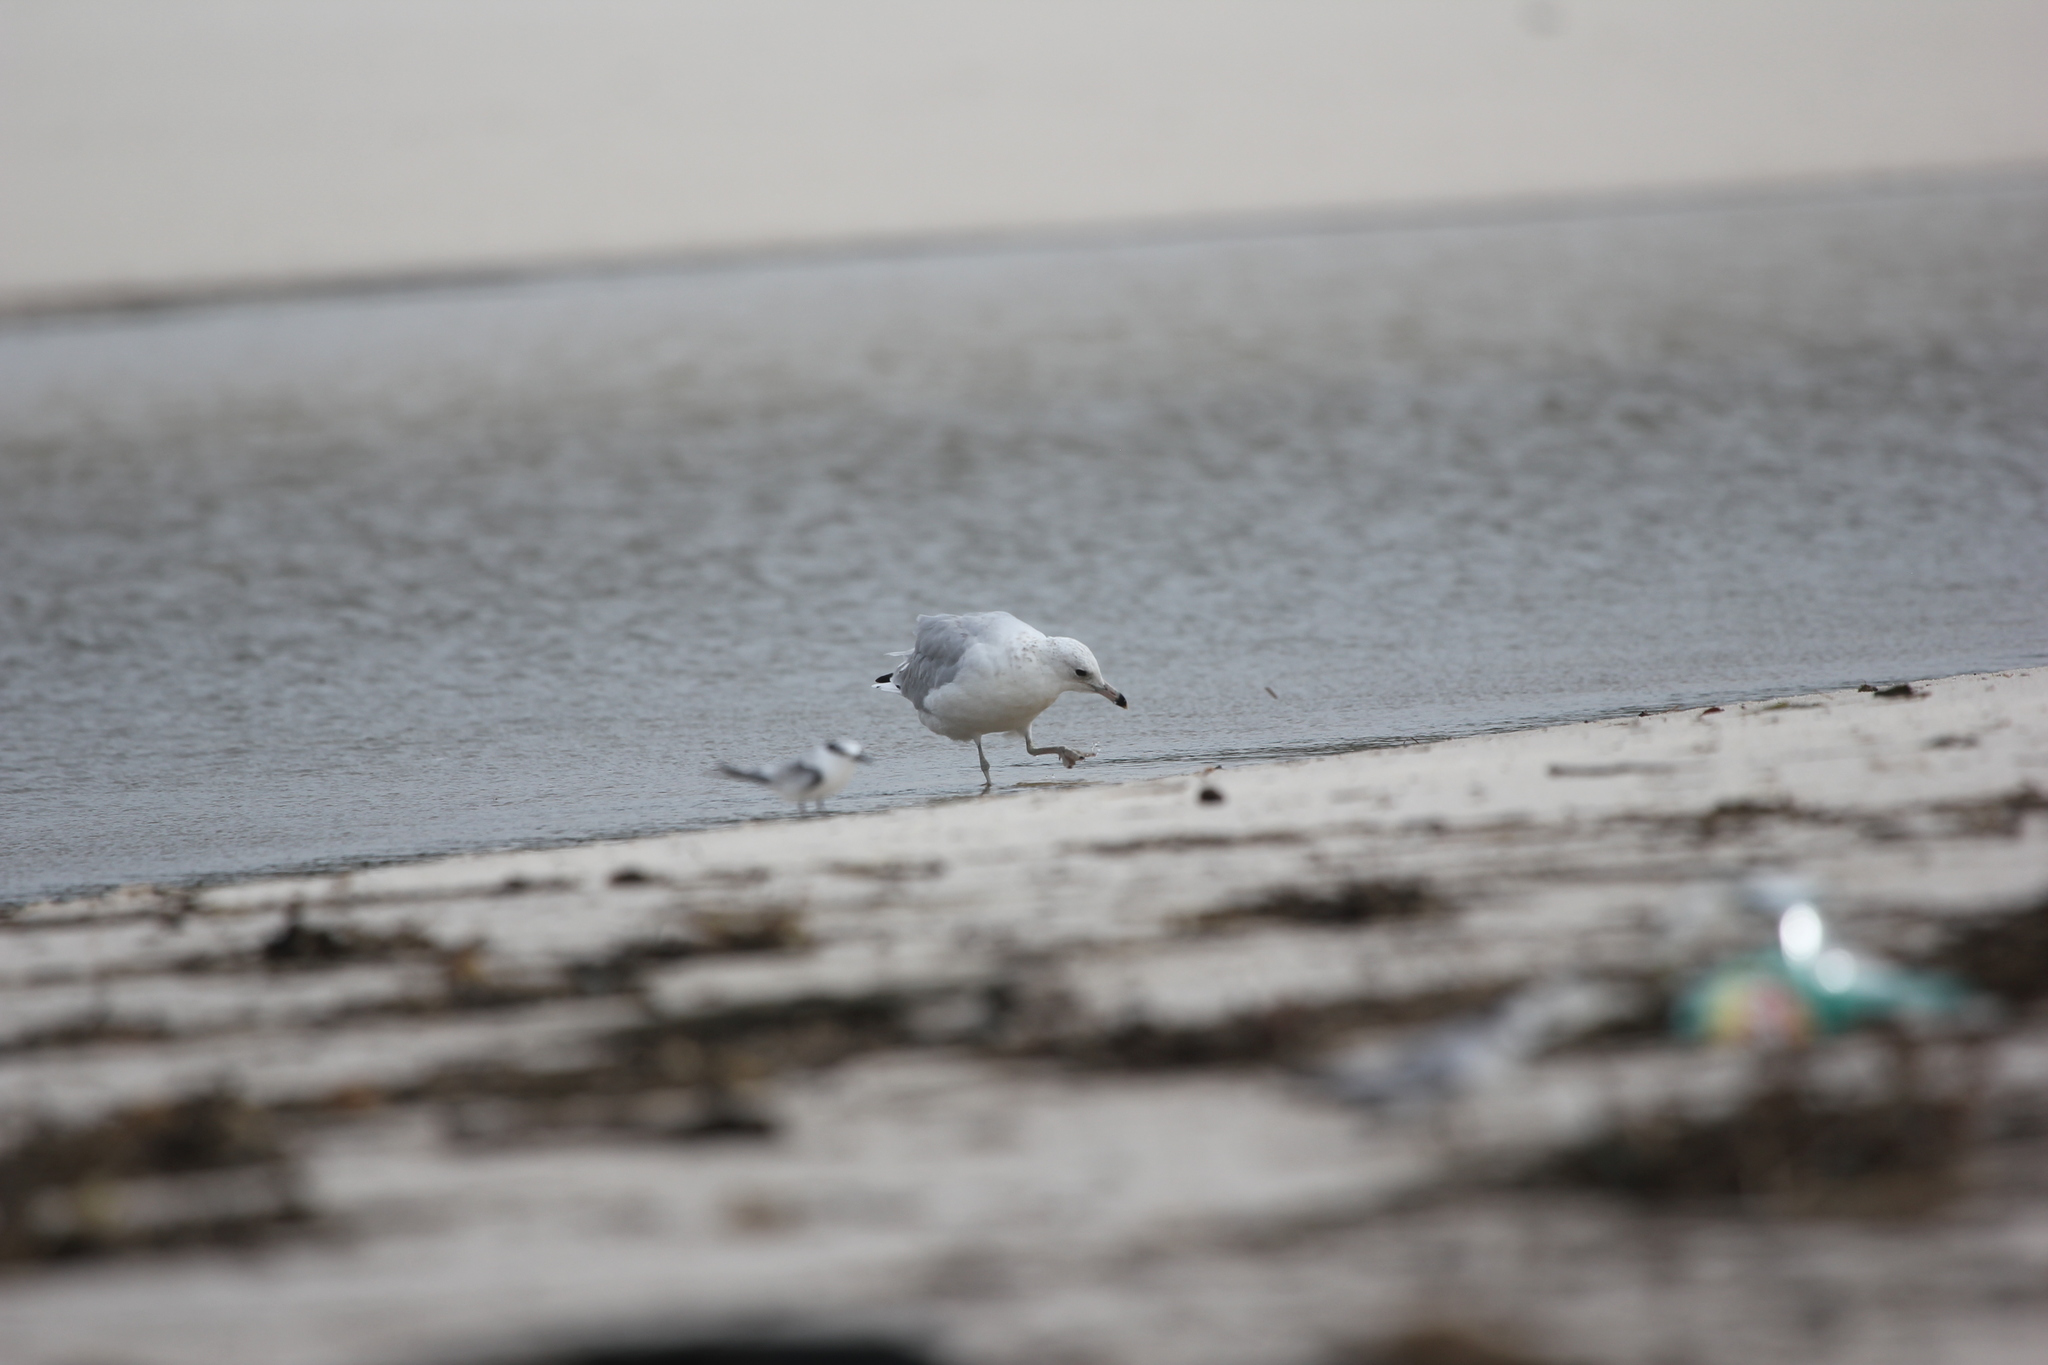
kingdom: Animalia
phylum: Chordata
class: Aves
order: Charadriiformes
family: Laridae
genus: Larus
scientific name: Larus delawarensis
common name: Ring-billed gull
